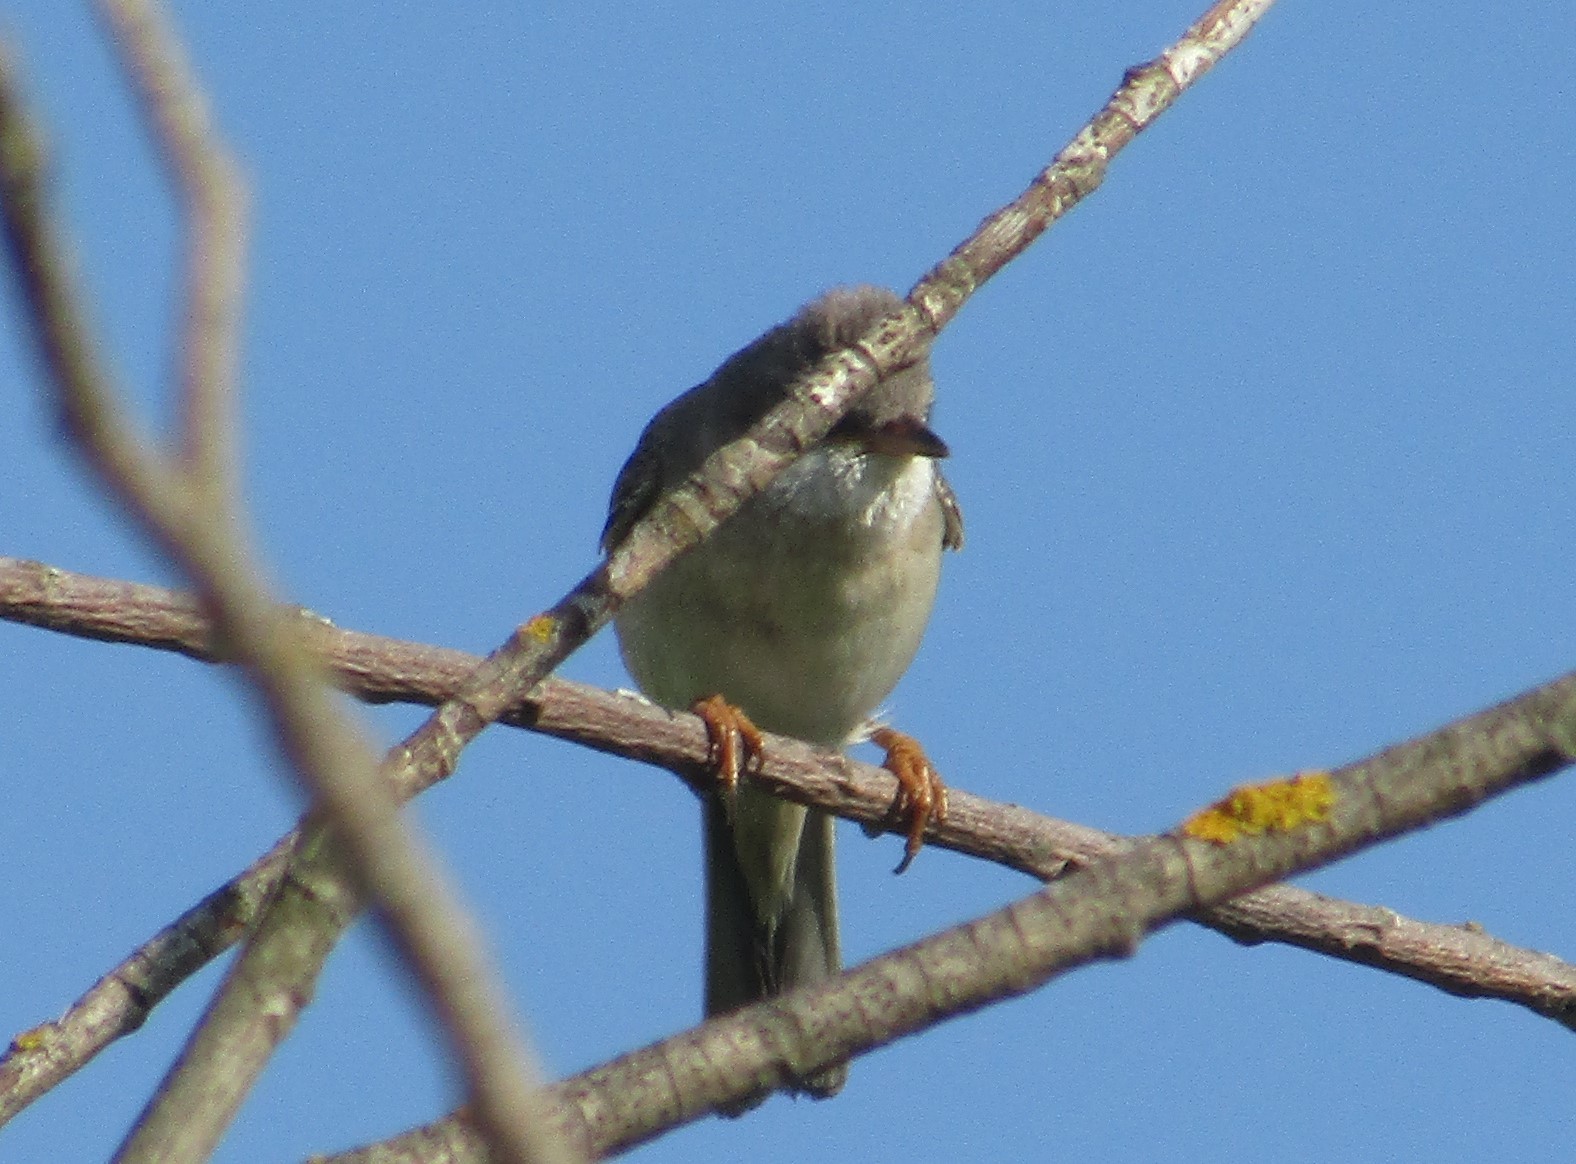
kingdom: Animalia
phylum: Chordata
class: Aves
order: Passeriformes
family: Sylviidae
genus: Sylvia
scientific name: Sylvia communis
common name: Common whitethroat
